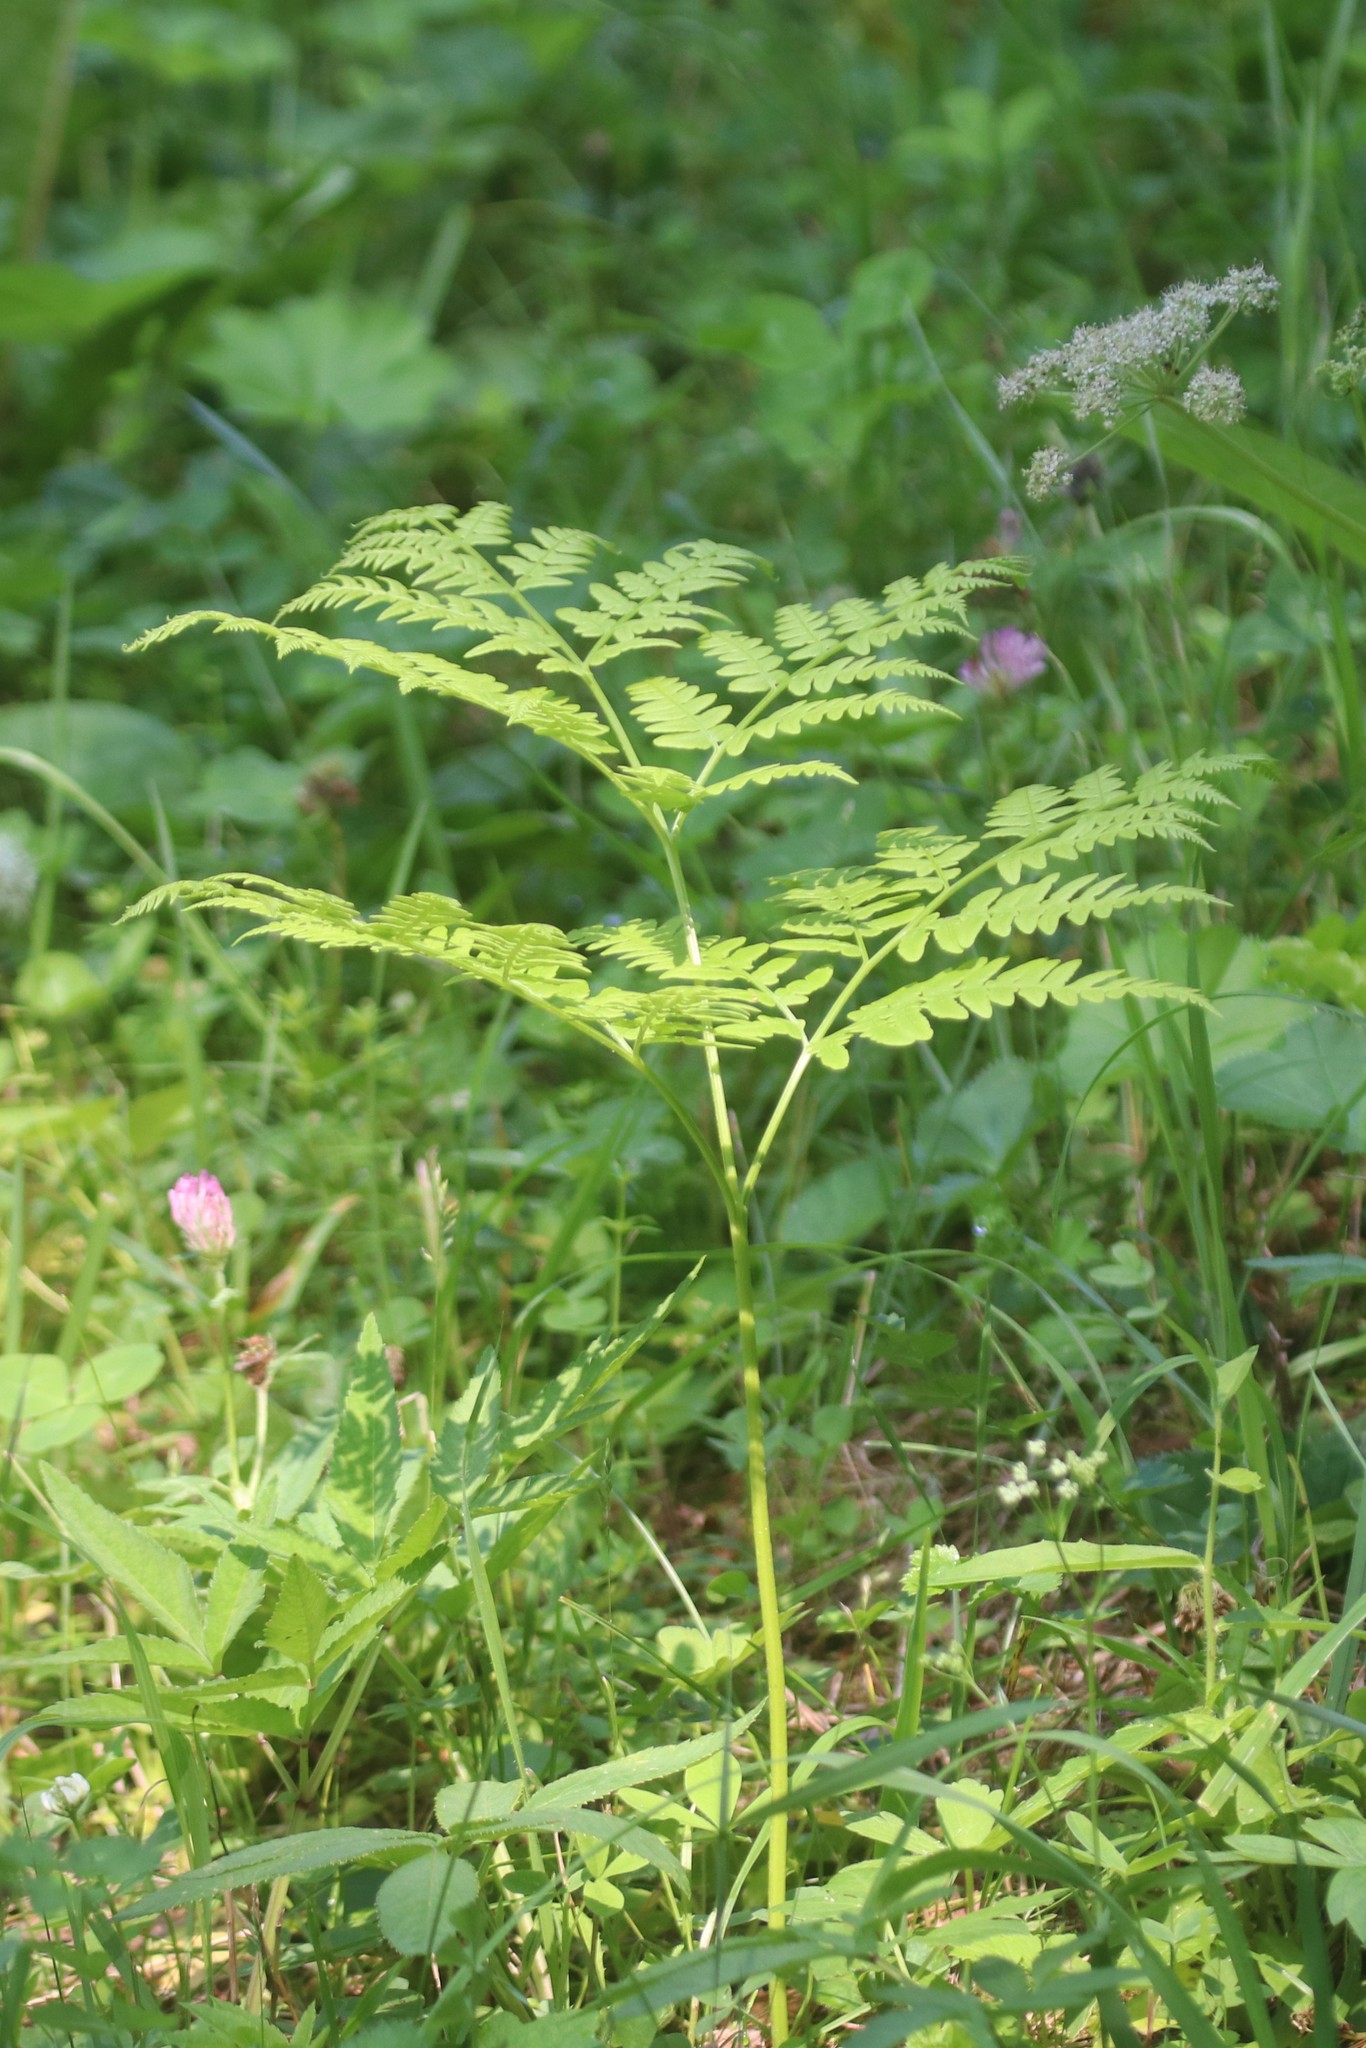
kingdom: Plantae
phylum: Tracheophyta
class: Polypodiopsida
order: Polypodiales
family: Dennstaedtiaceae
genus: Pteridium
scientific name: Pteridium aquilinum
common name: Bracken
